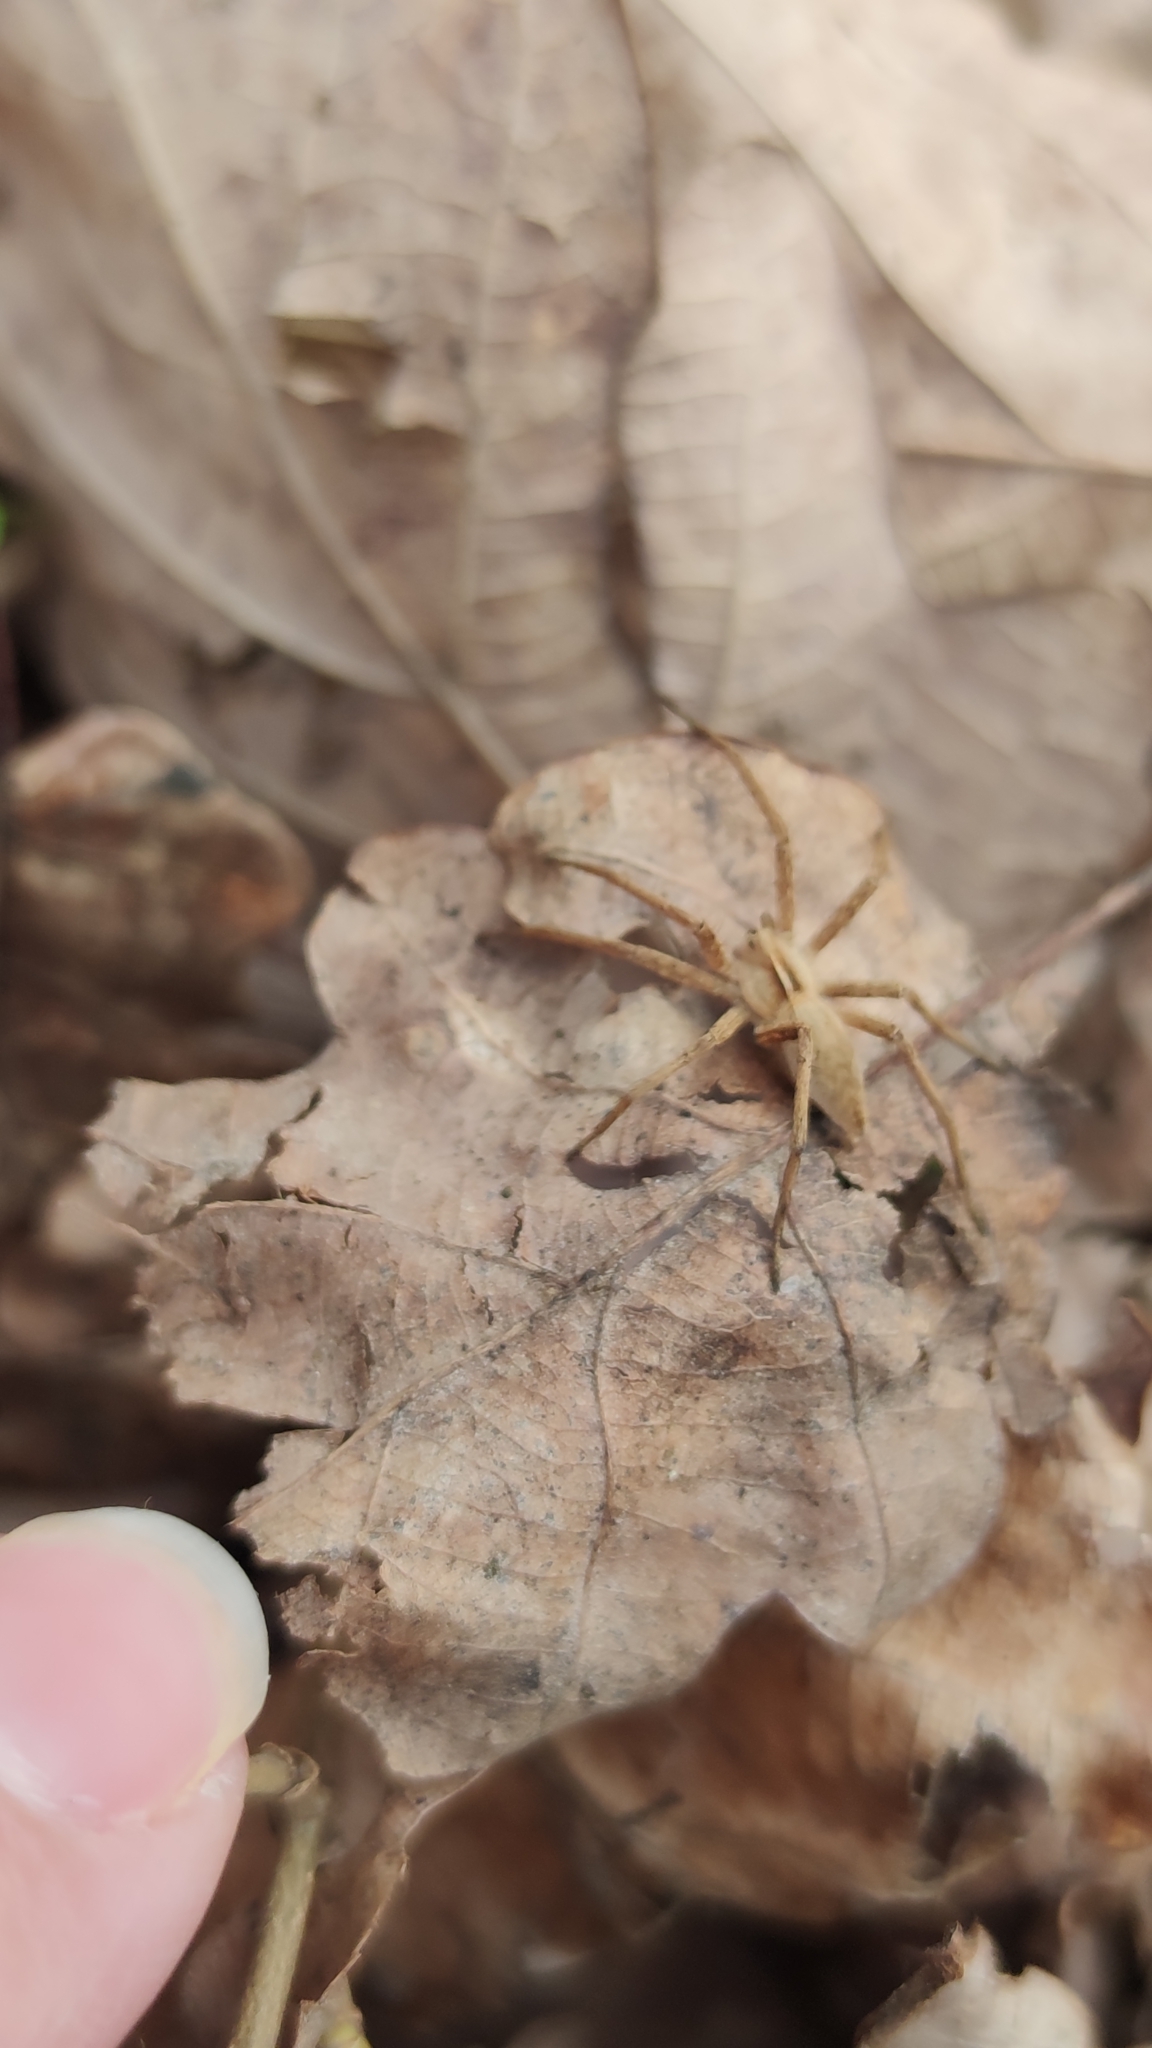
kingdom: Animalia
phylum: Arthropoda
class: Arachnida
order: Araneae
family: Pisauridae
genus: Pisaura
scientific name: Pisaura mirabilis
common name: Tent spider
